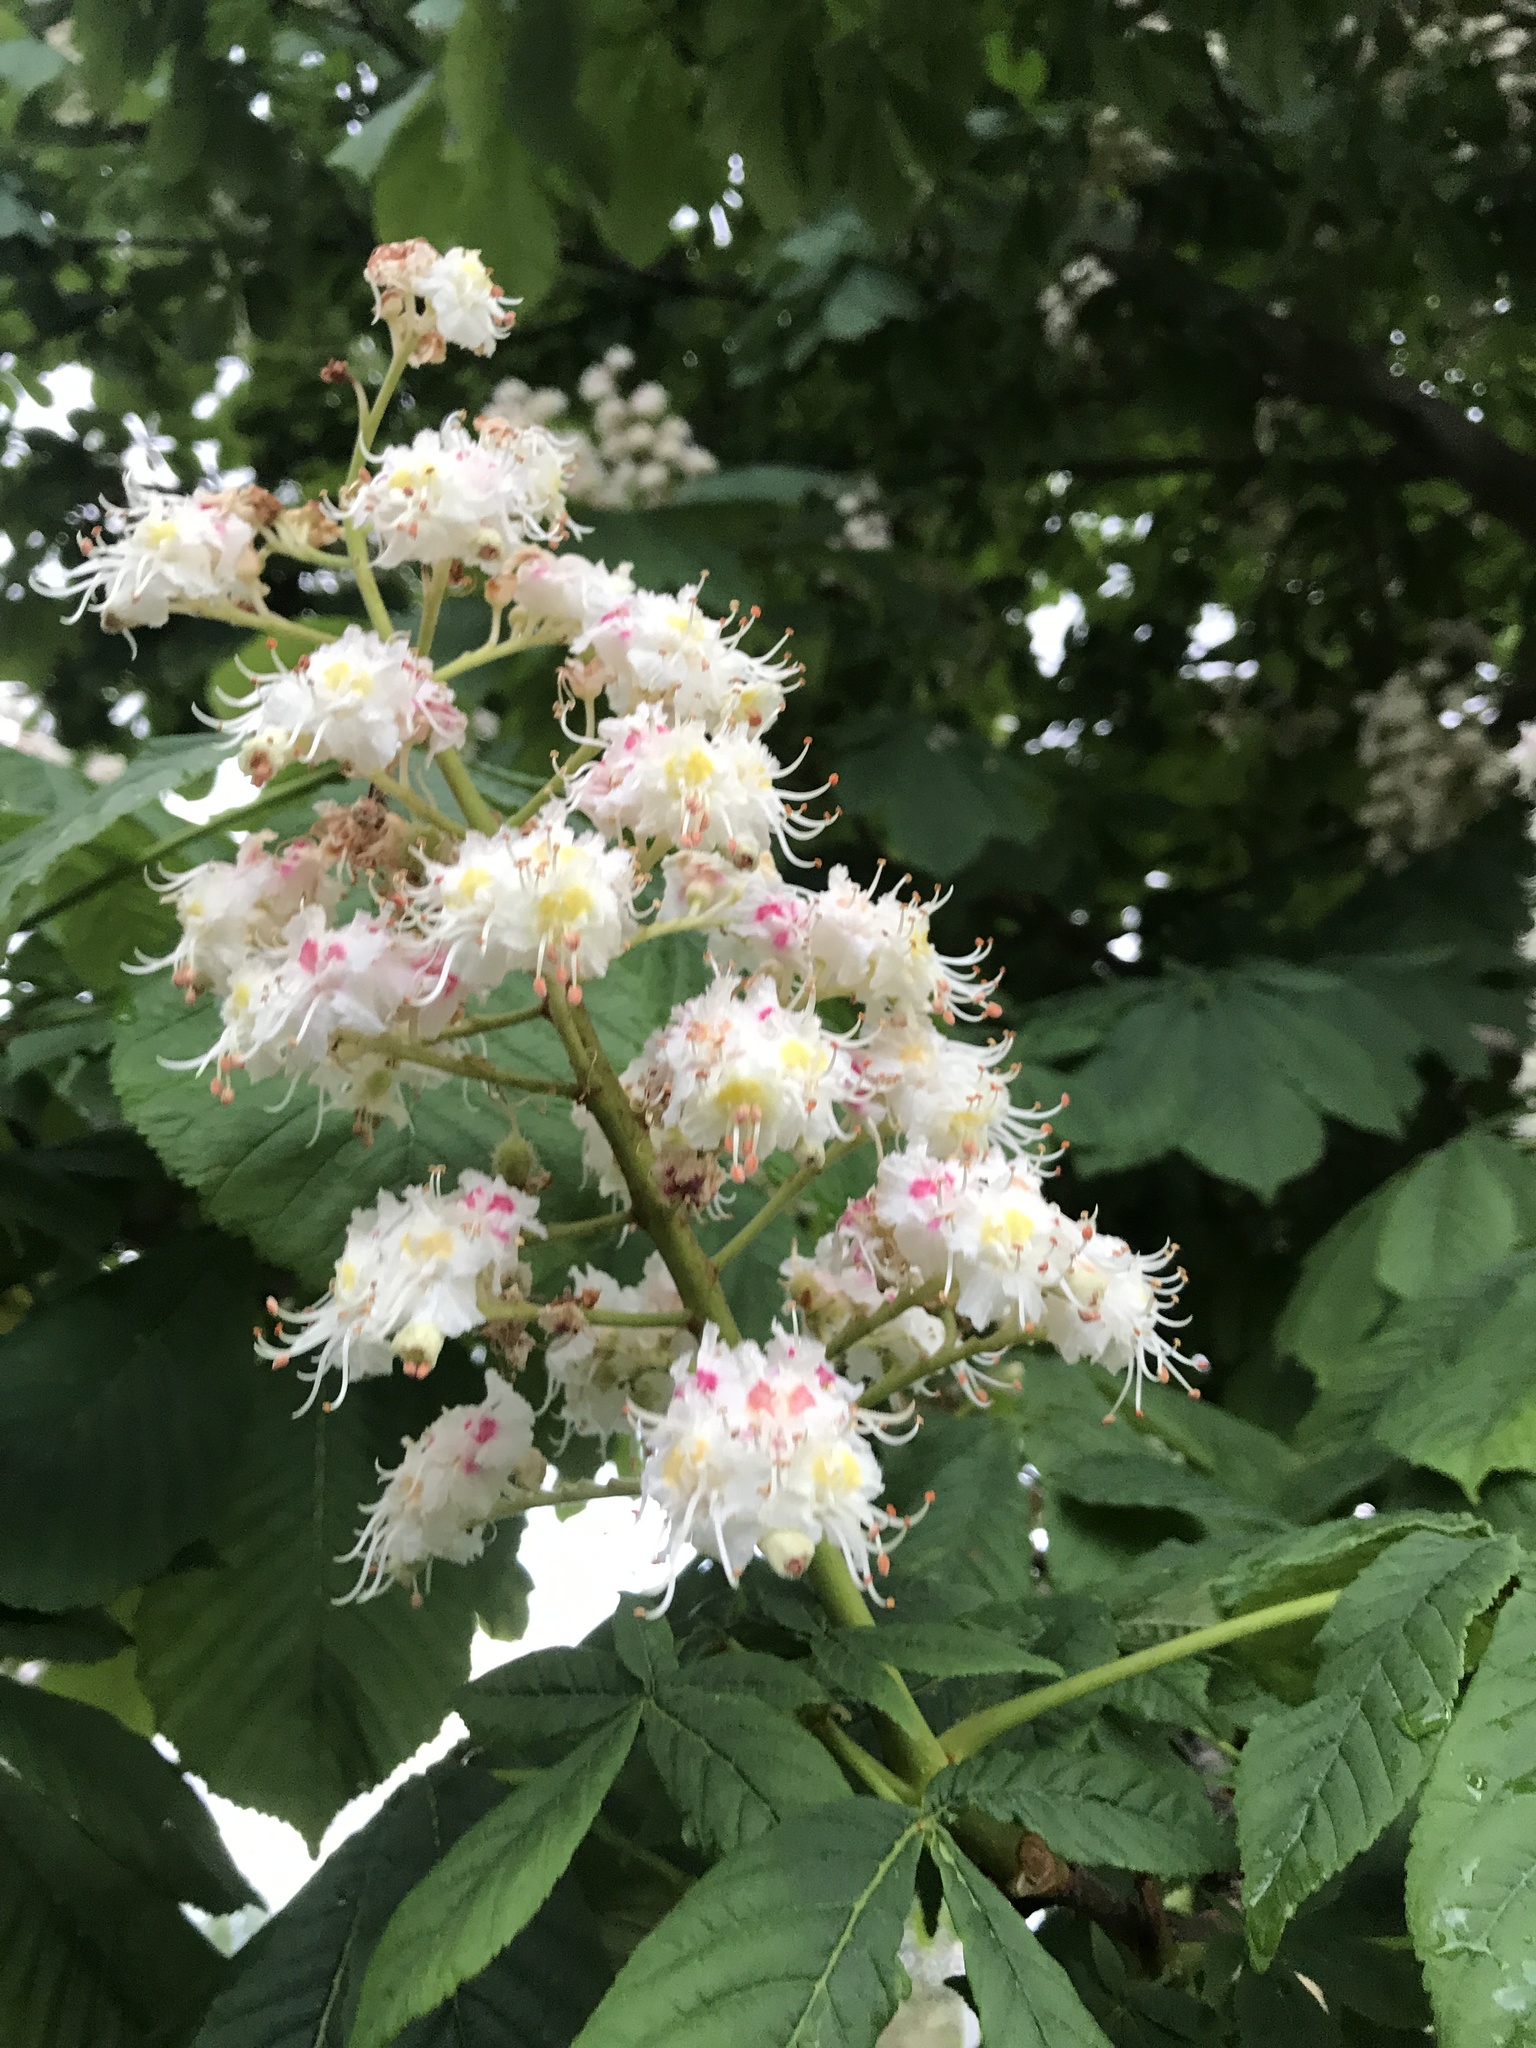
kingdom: Plantae
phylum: Tracheophyta
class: Magnoliopsida
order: Sapindales
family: Sapindaceae
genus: Aesculus
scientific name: Aesculus hippocastanum
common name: Horse-chestnut
